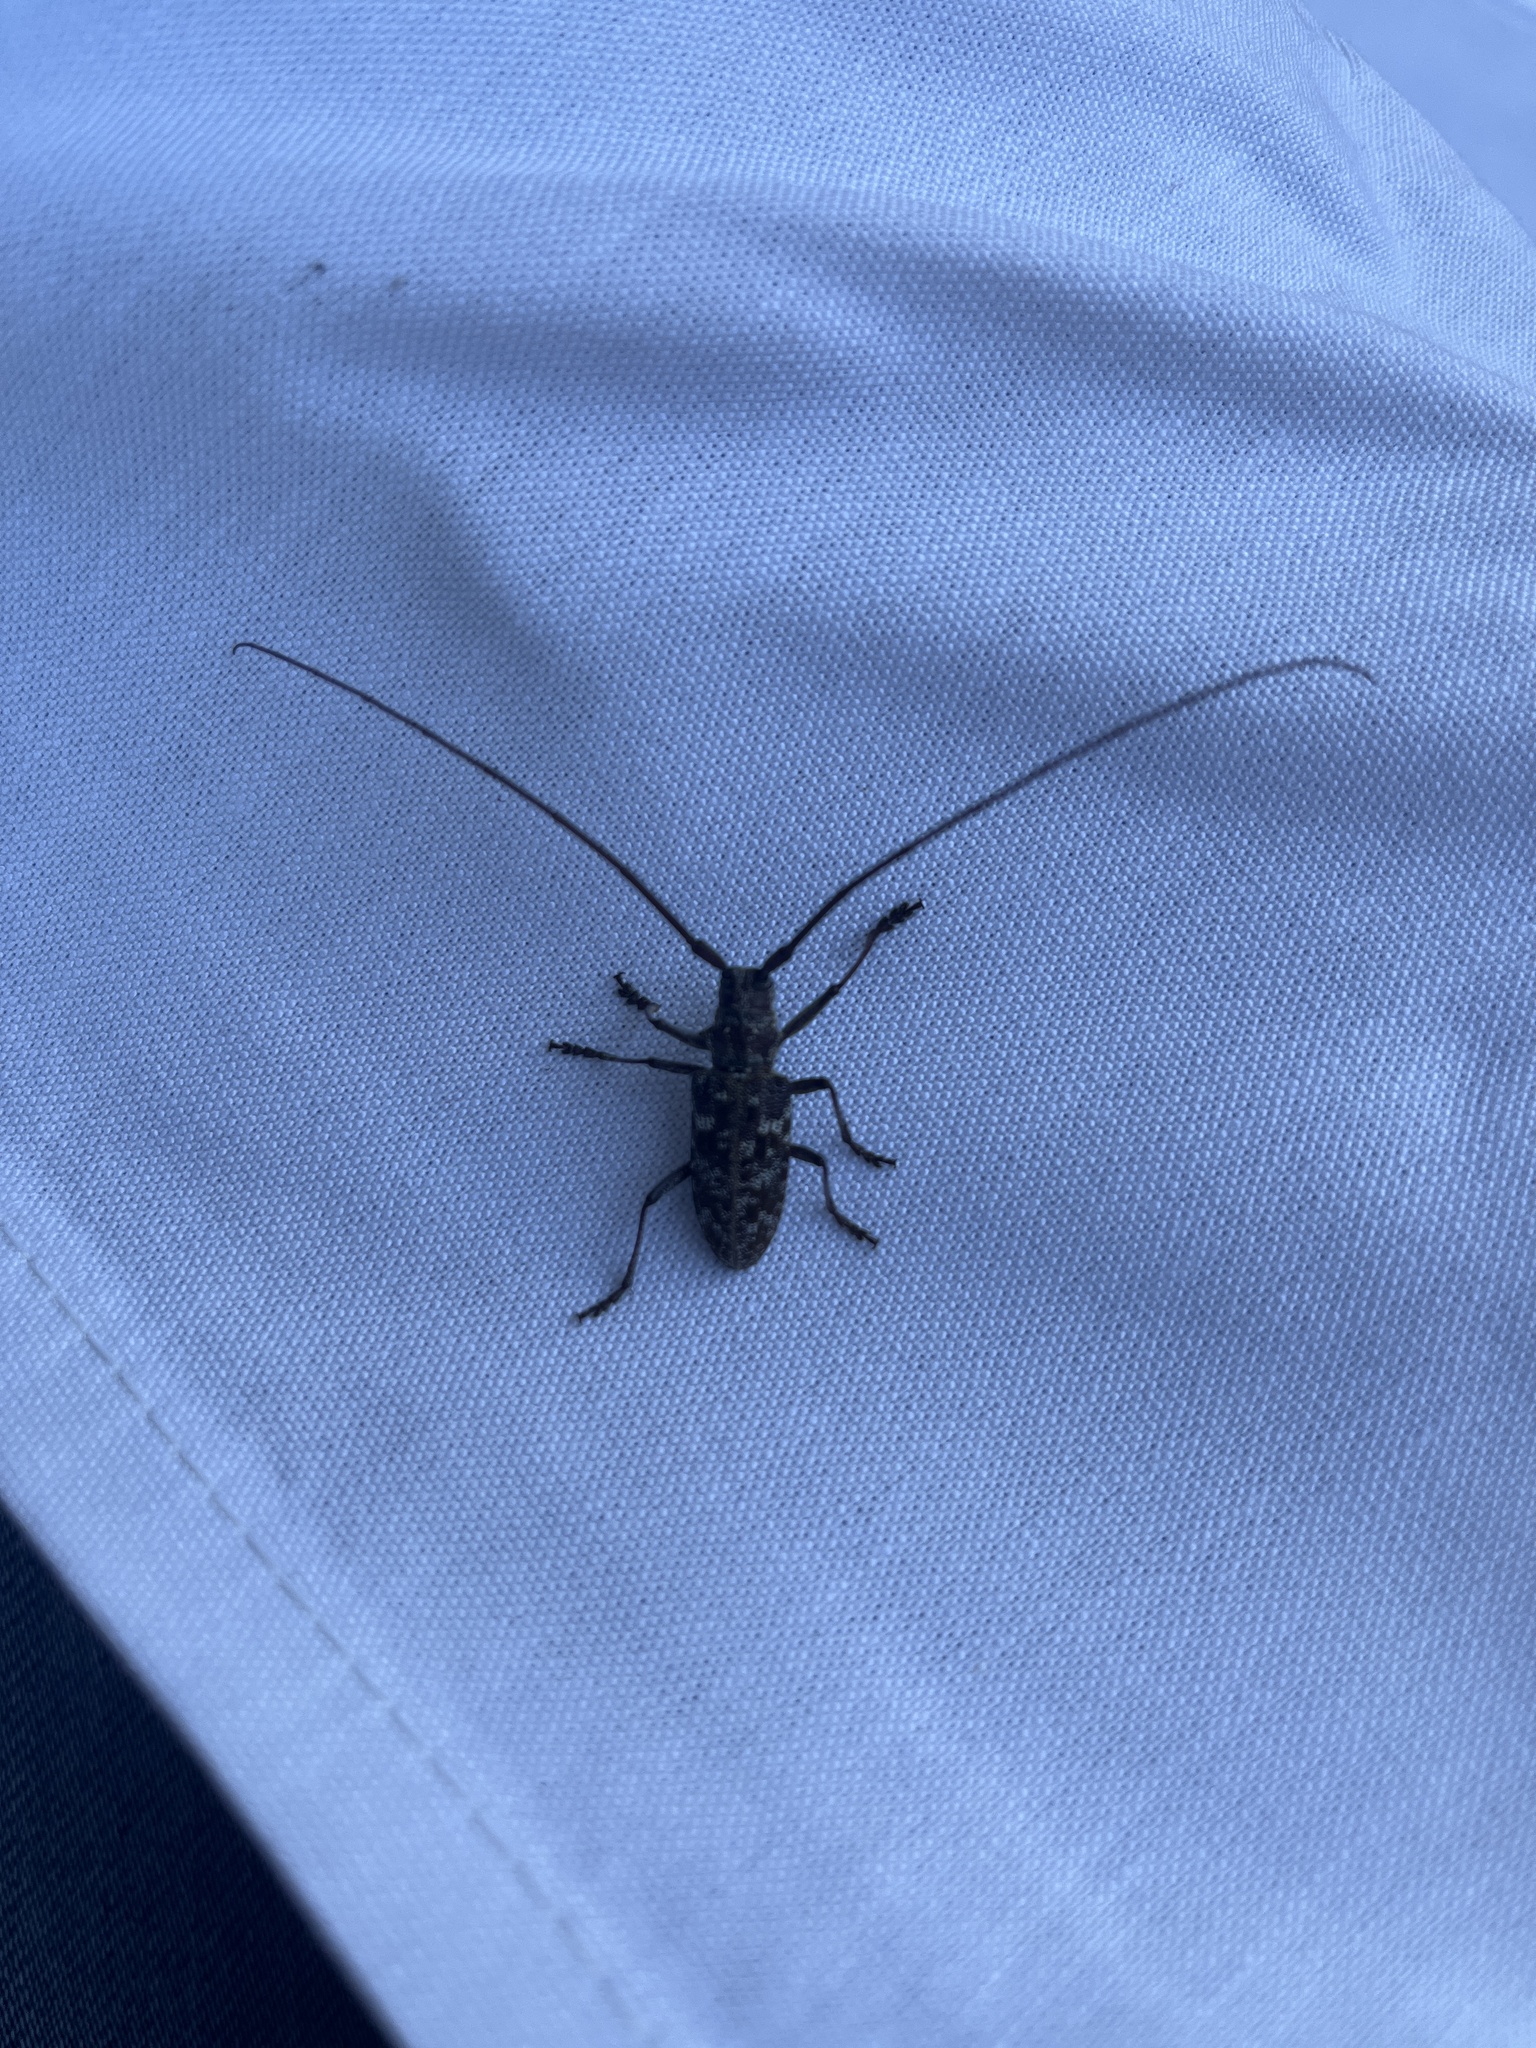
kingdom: Animalia
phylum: Arthropoda
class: Insecta
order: Coleoptera
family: Cerambycidae
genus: Monochamus
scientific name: Monochamus obtusus
